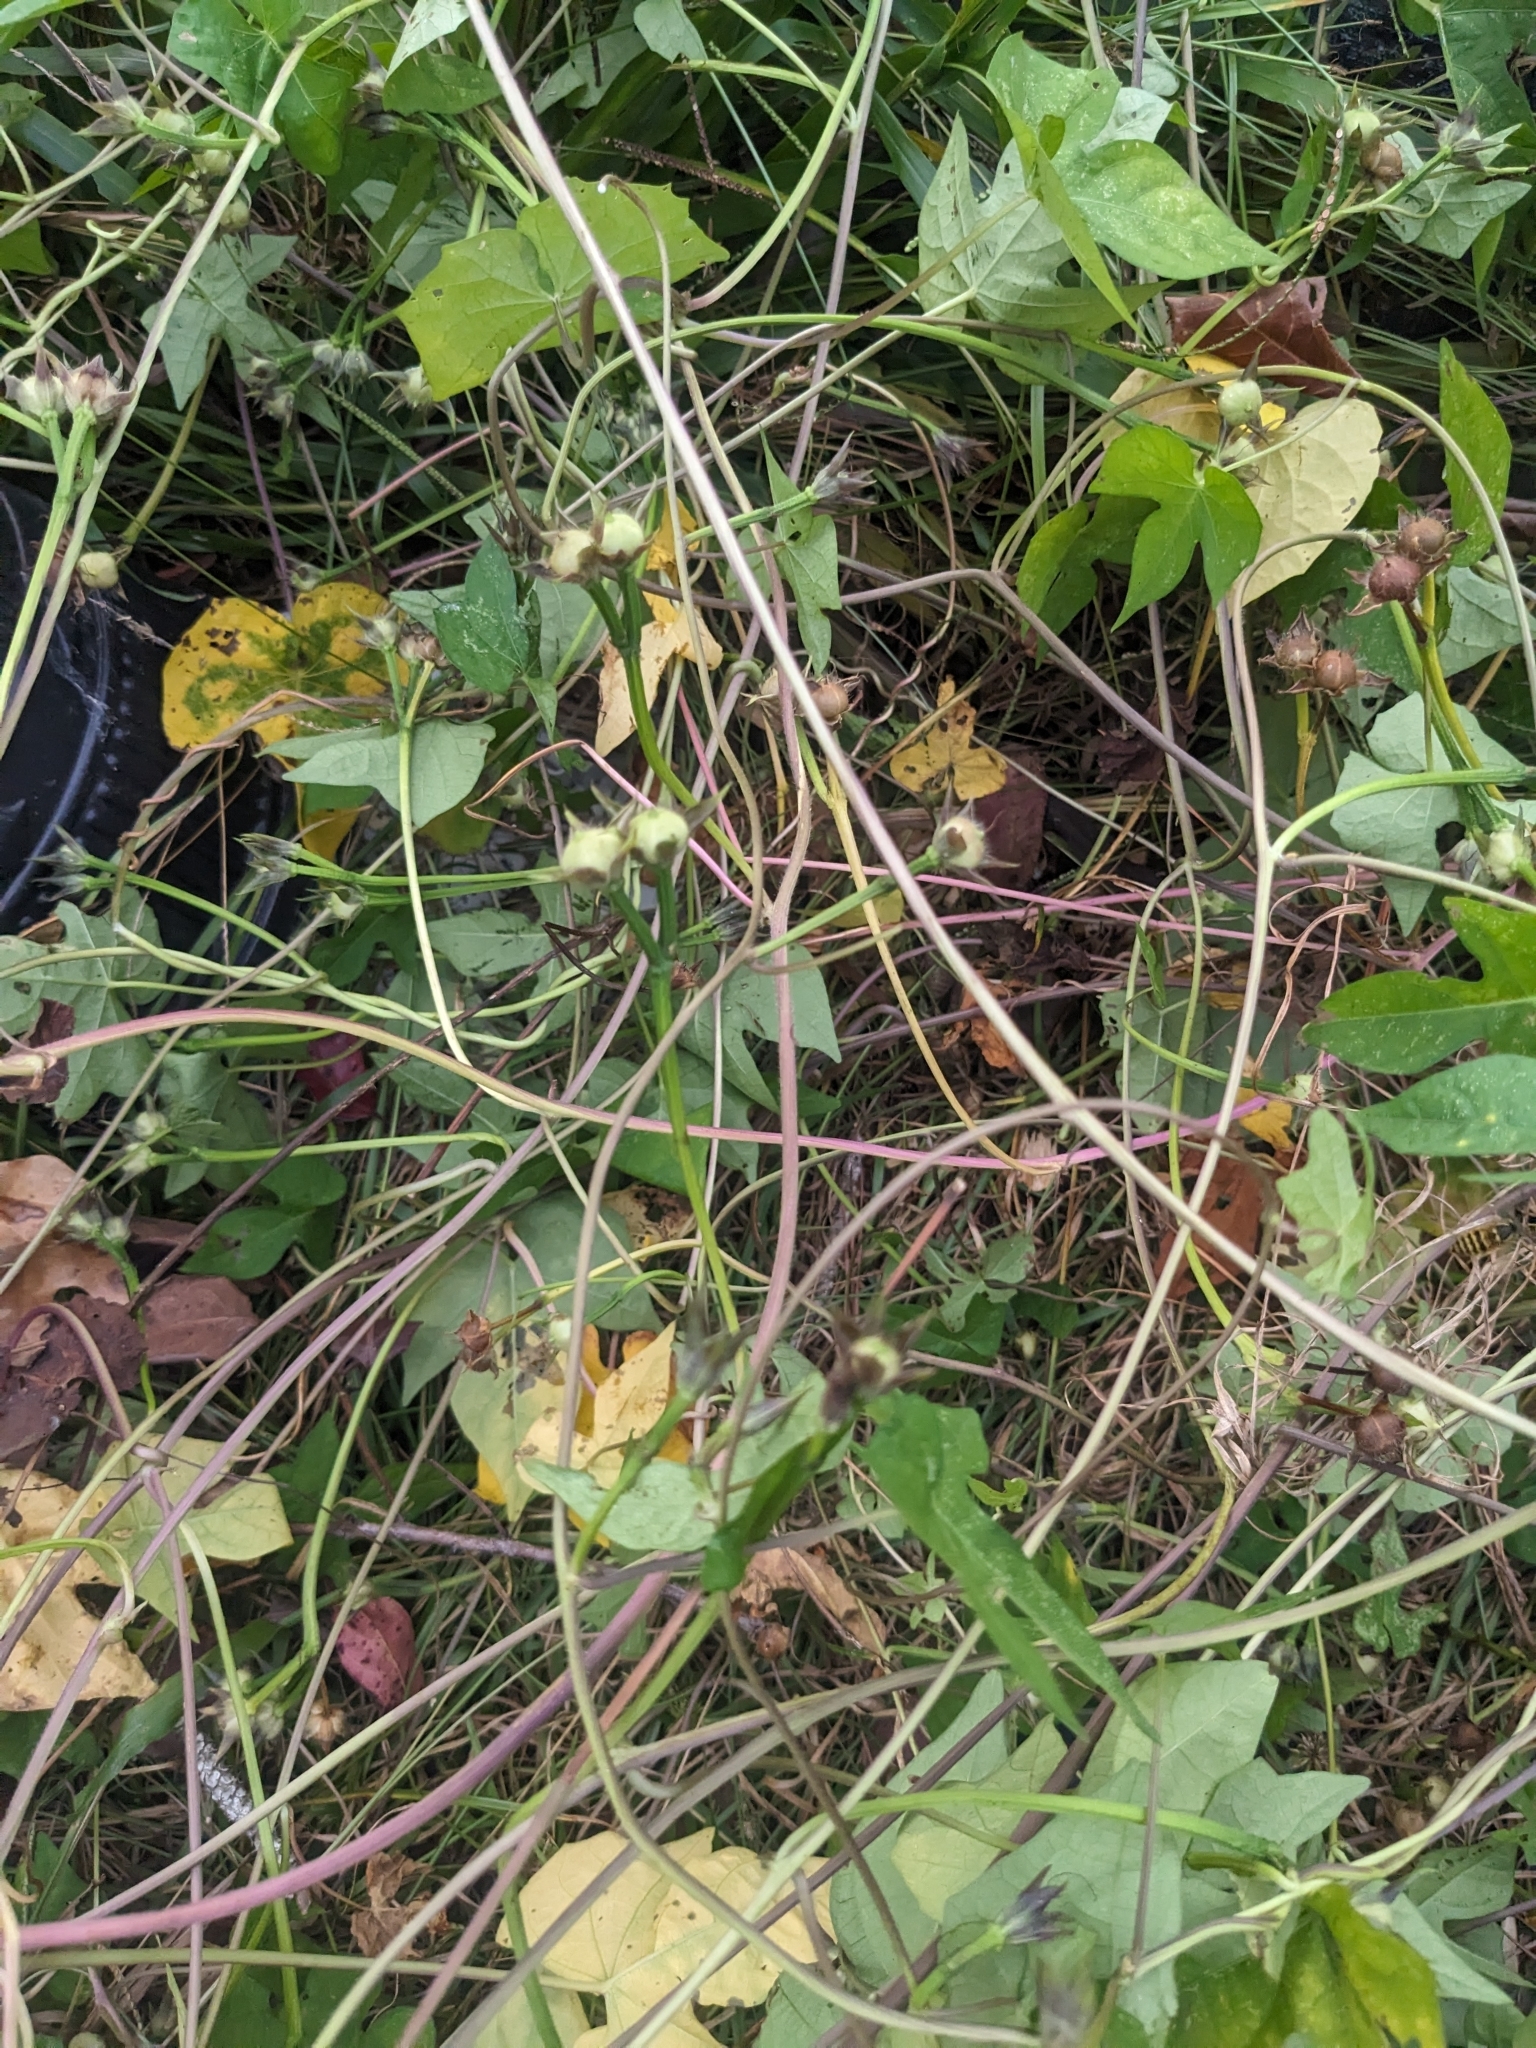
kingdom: Plantae
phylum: Tracheophyta
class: Magnoliopsida
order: Solanales
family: Convolvulaceae
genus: Ipomoea
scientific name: Ipomoea cordatotriloba
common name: Cotton morning glory
